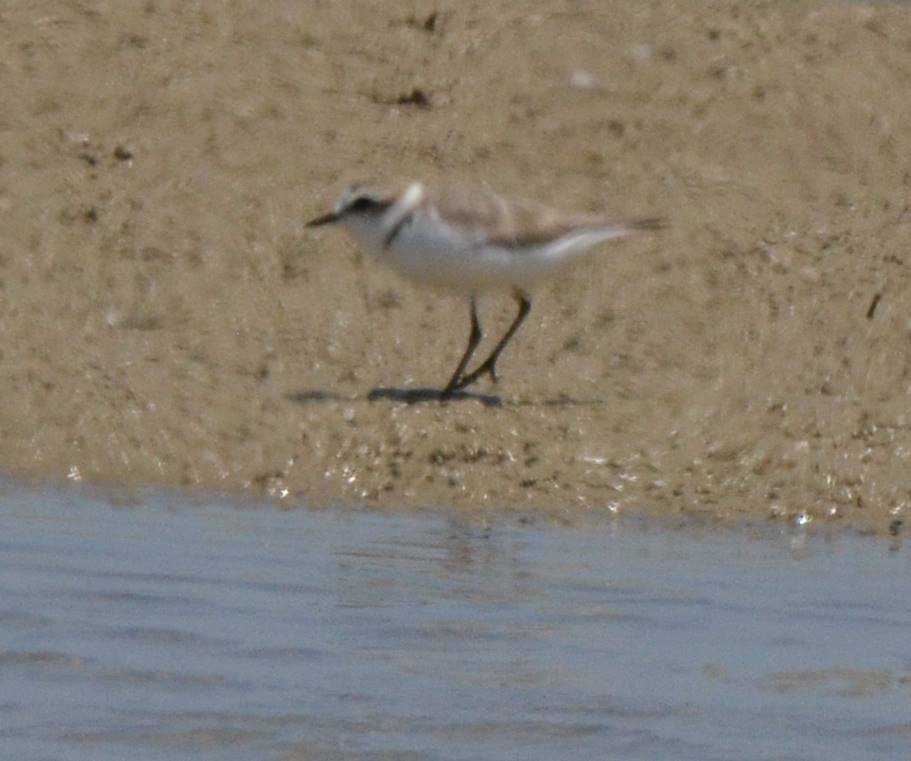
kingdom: Animalia
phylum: Chordata
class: Aves
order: Charadriiformes
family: Charadriidae
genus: Charadrius
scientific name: Charadrius alexandrinus
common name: Kentish plover
